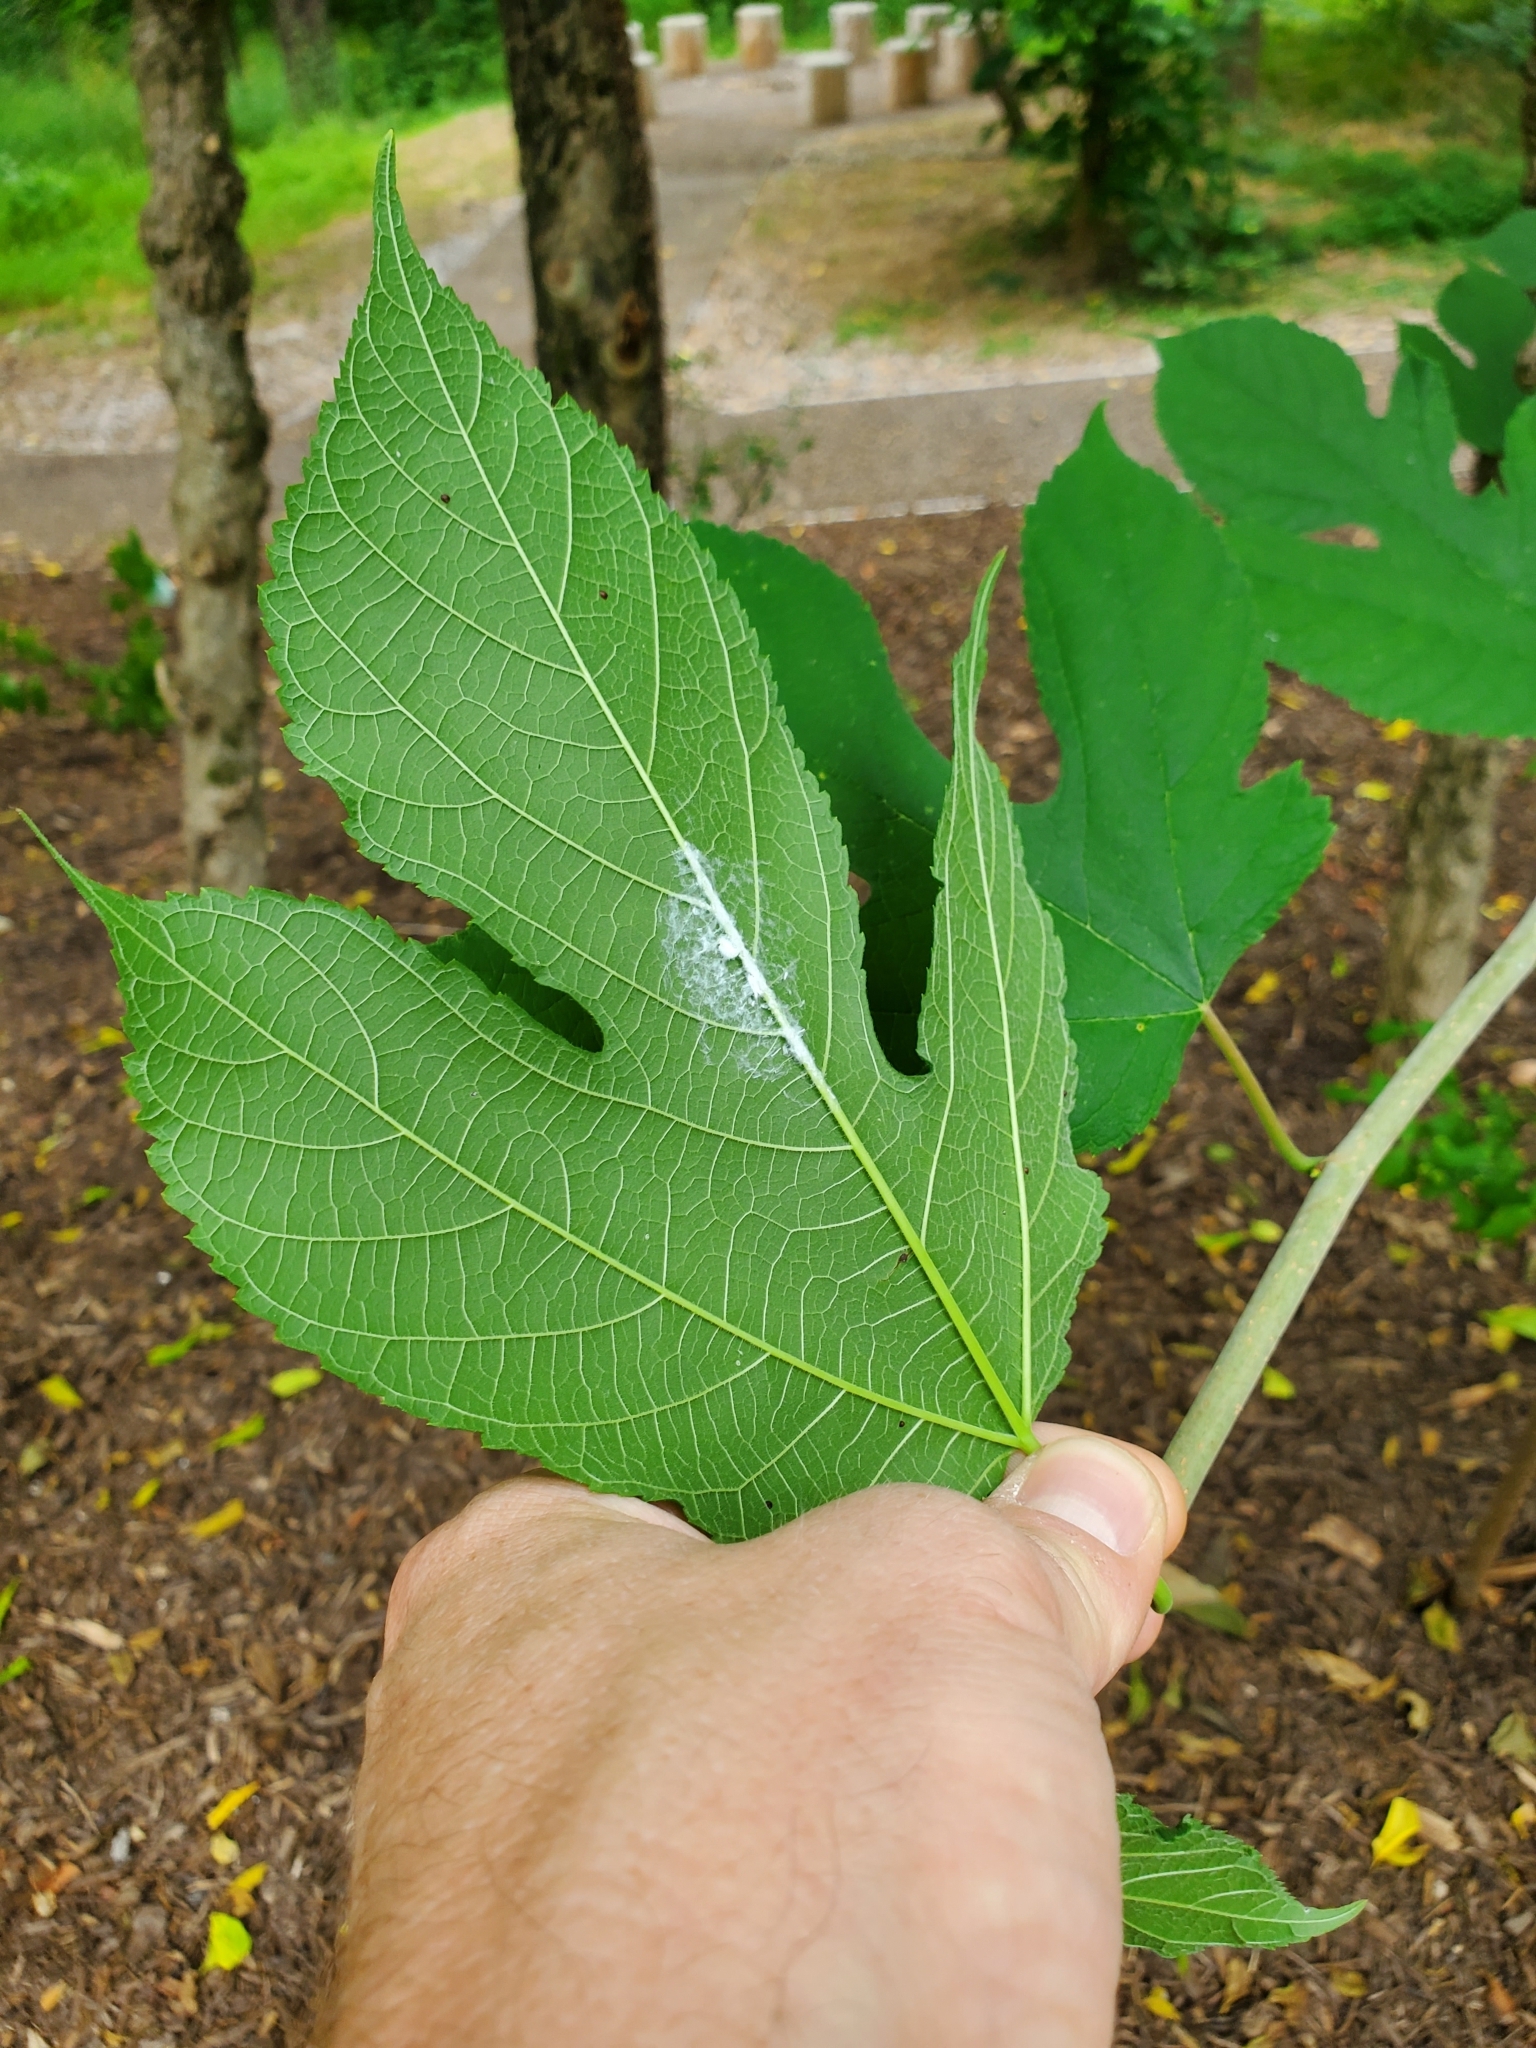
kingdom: Plantae
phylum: Tracheophyta
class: Magnoliopsida
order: Rosales
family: Moraceae
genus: Morus
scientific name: Morus rubra
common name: Red mulberry
